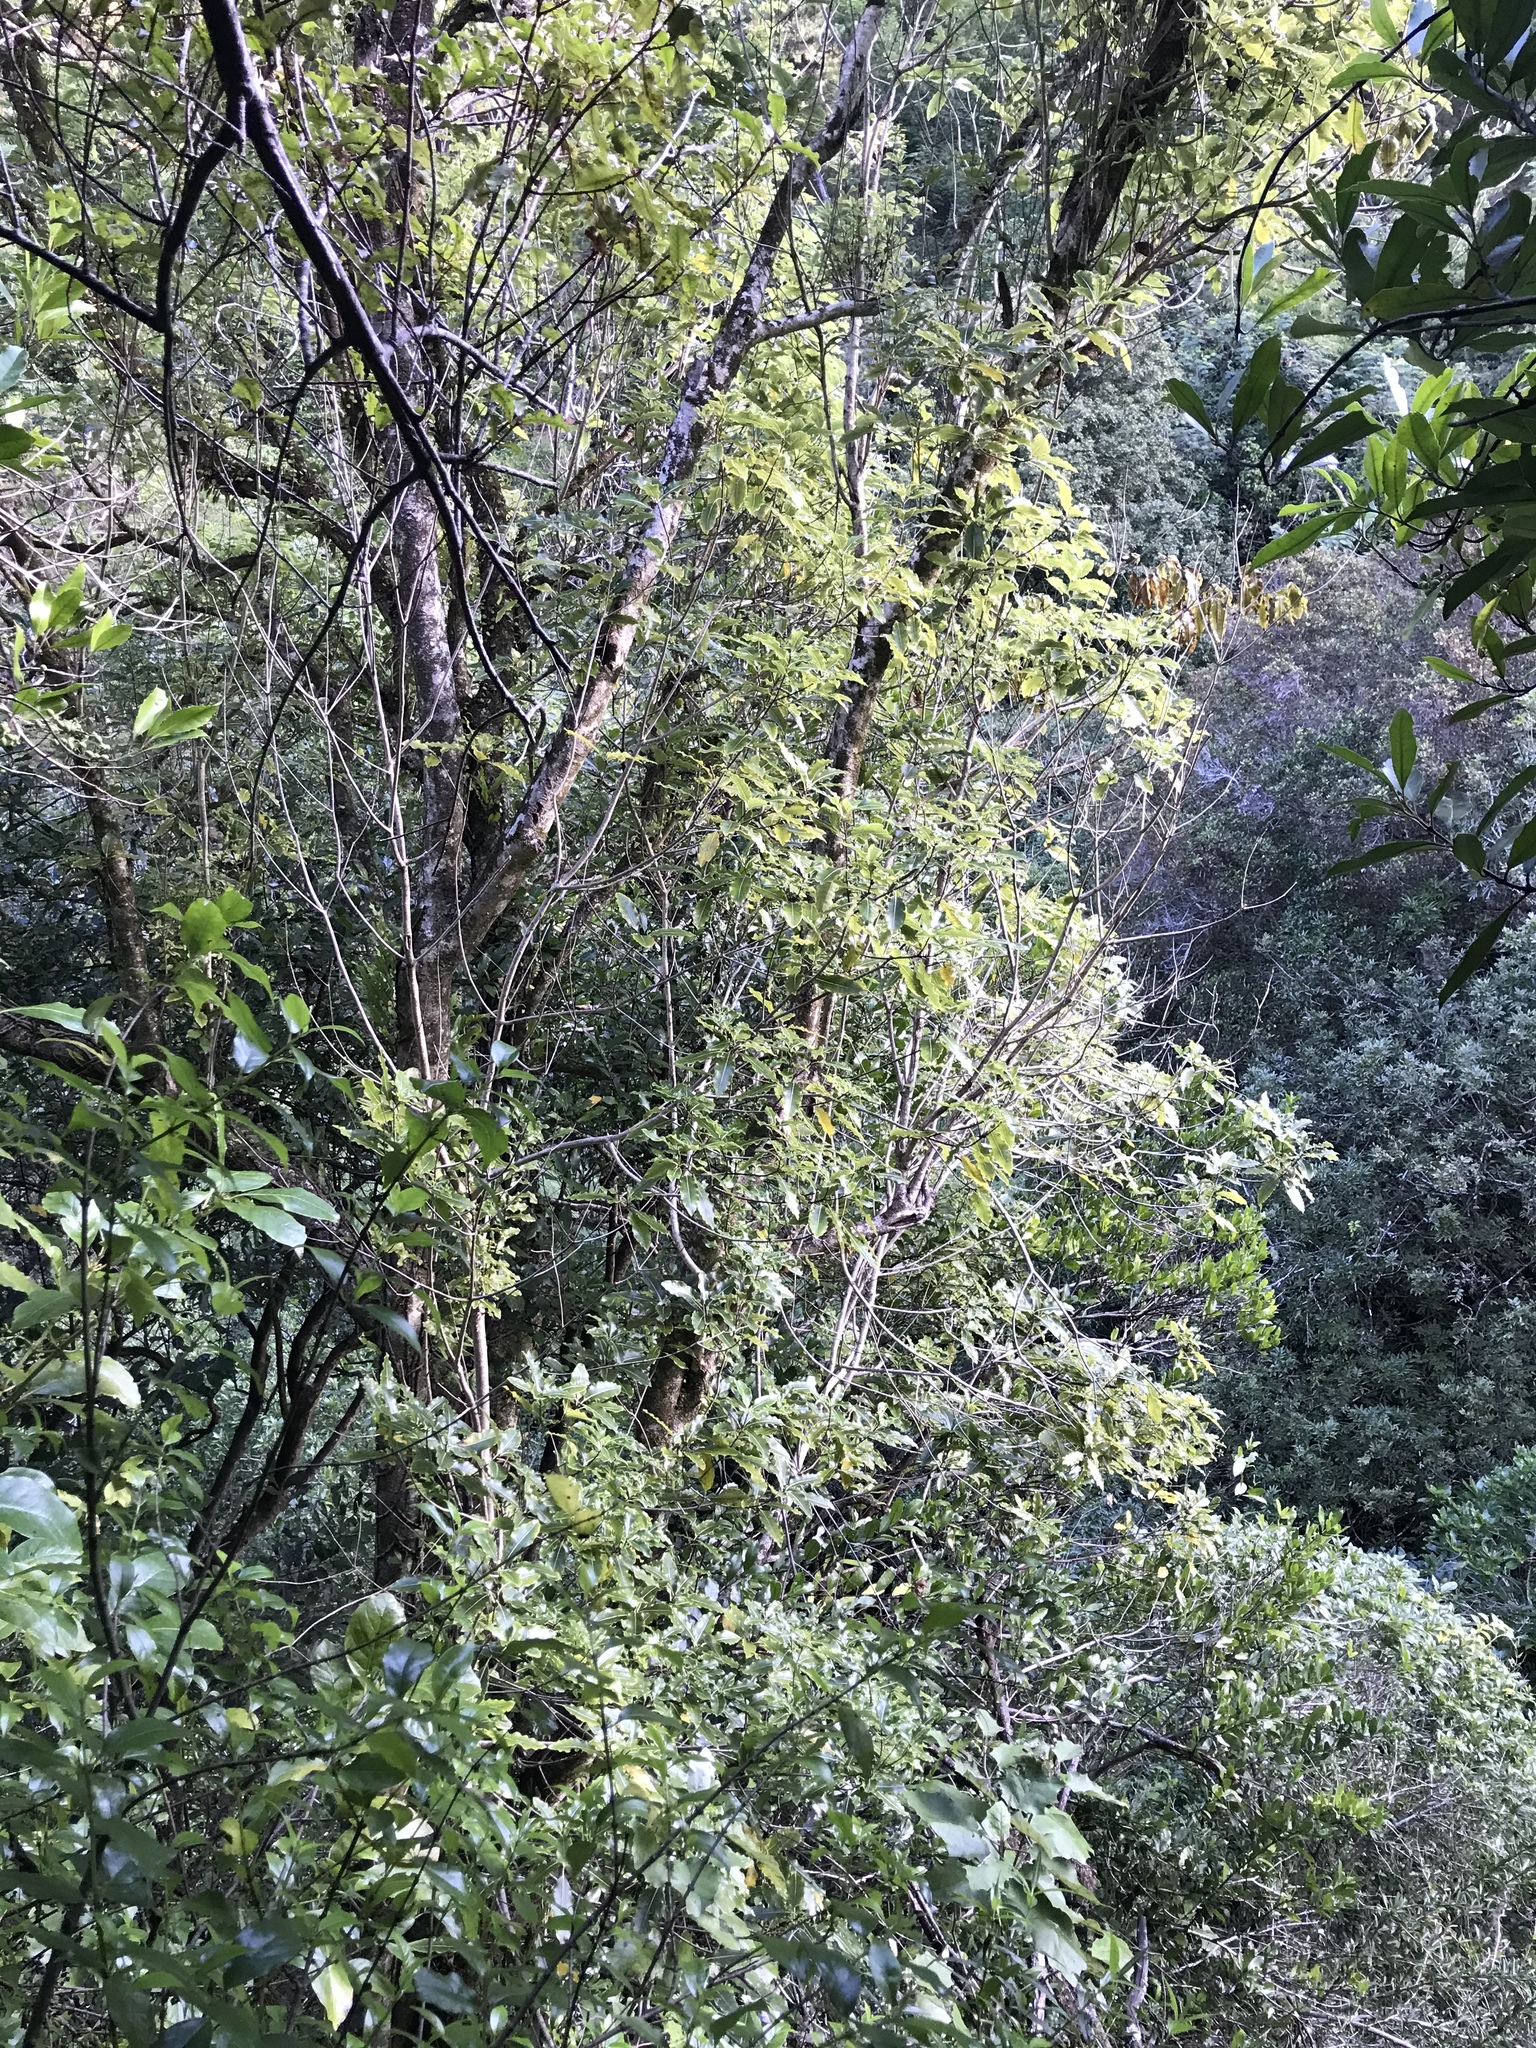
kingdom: Plantae
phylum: Tracheophyta
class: Magnoliopsida
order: Apiales
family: Pittosporaceae
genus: Pittosporum
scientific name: Pittosporum eugenioides
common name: Lemonwood
